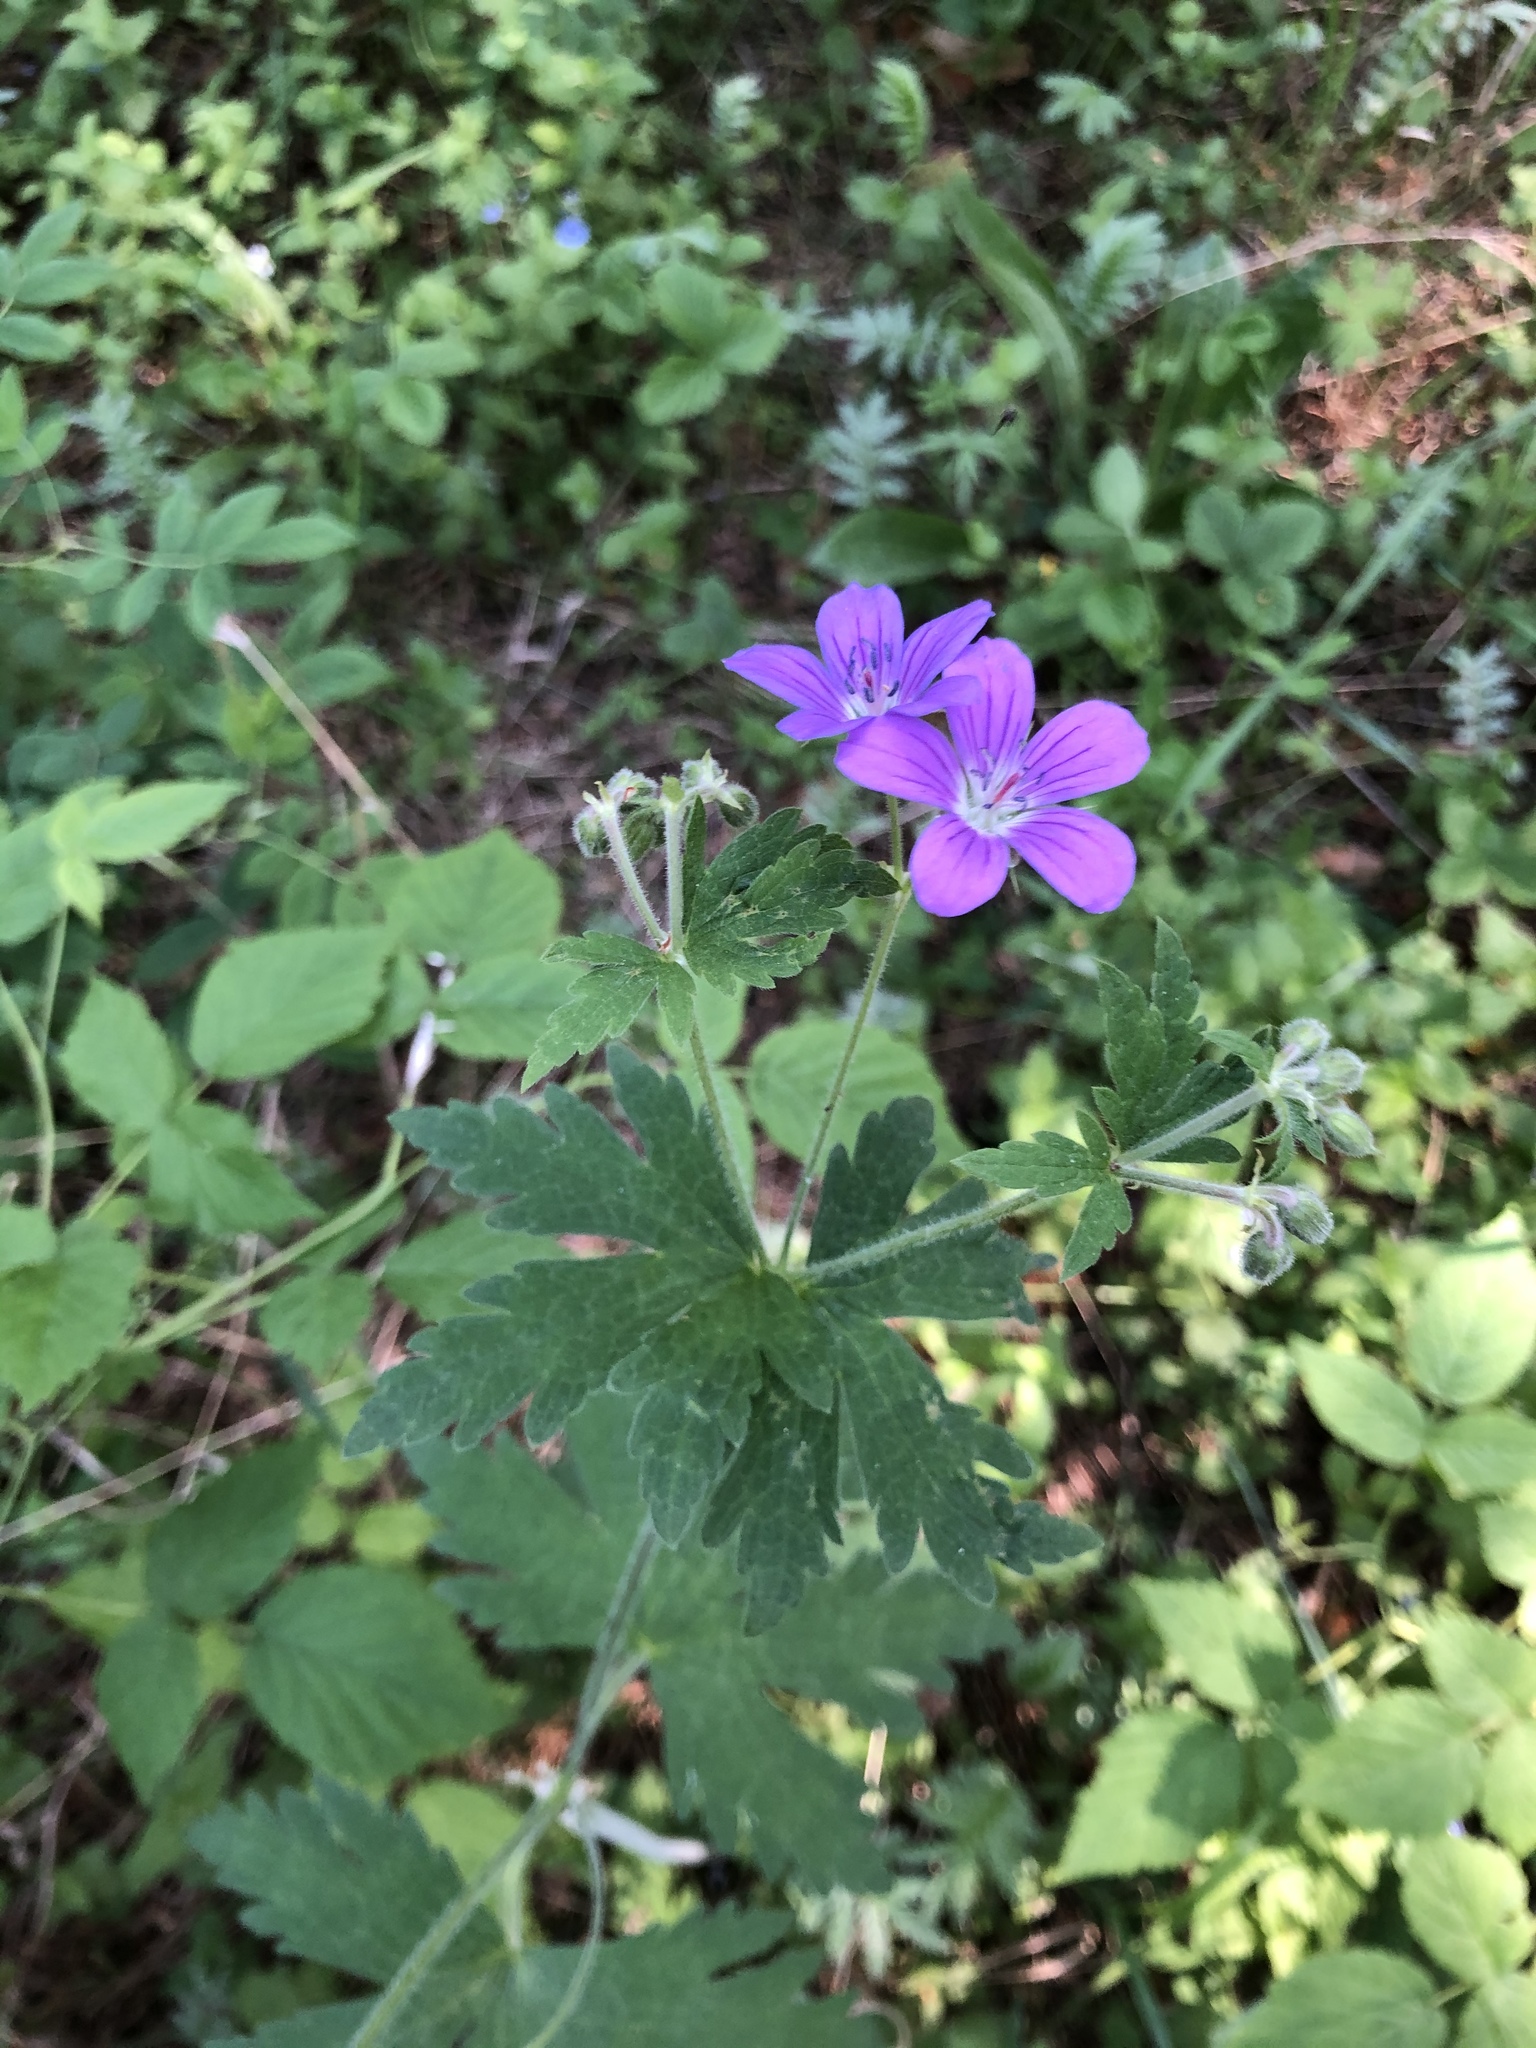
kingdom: Plantae
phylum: Tracheophyta
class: Magnoliopsida
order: Geraniales
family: Geraniaceae
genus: Geranium
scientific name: Geranium sylvaticum
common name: Wood crane's-bill
